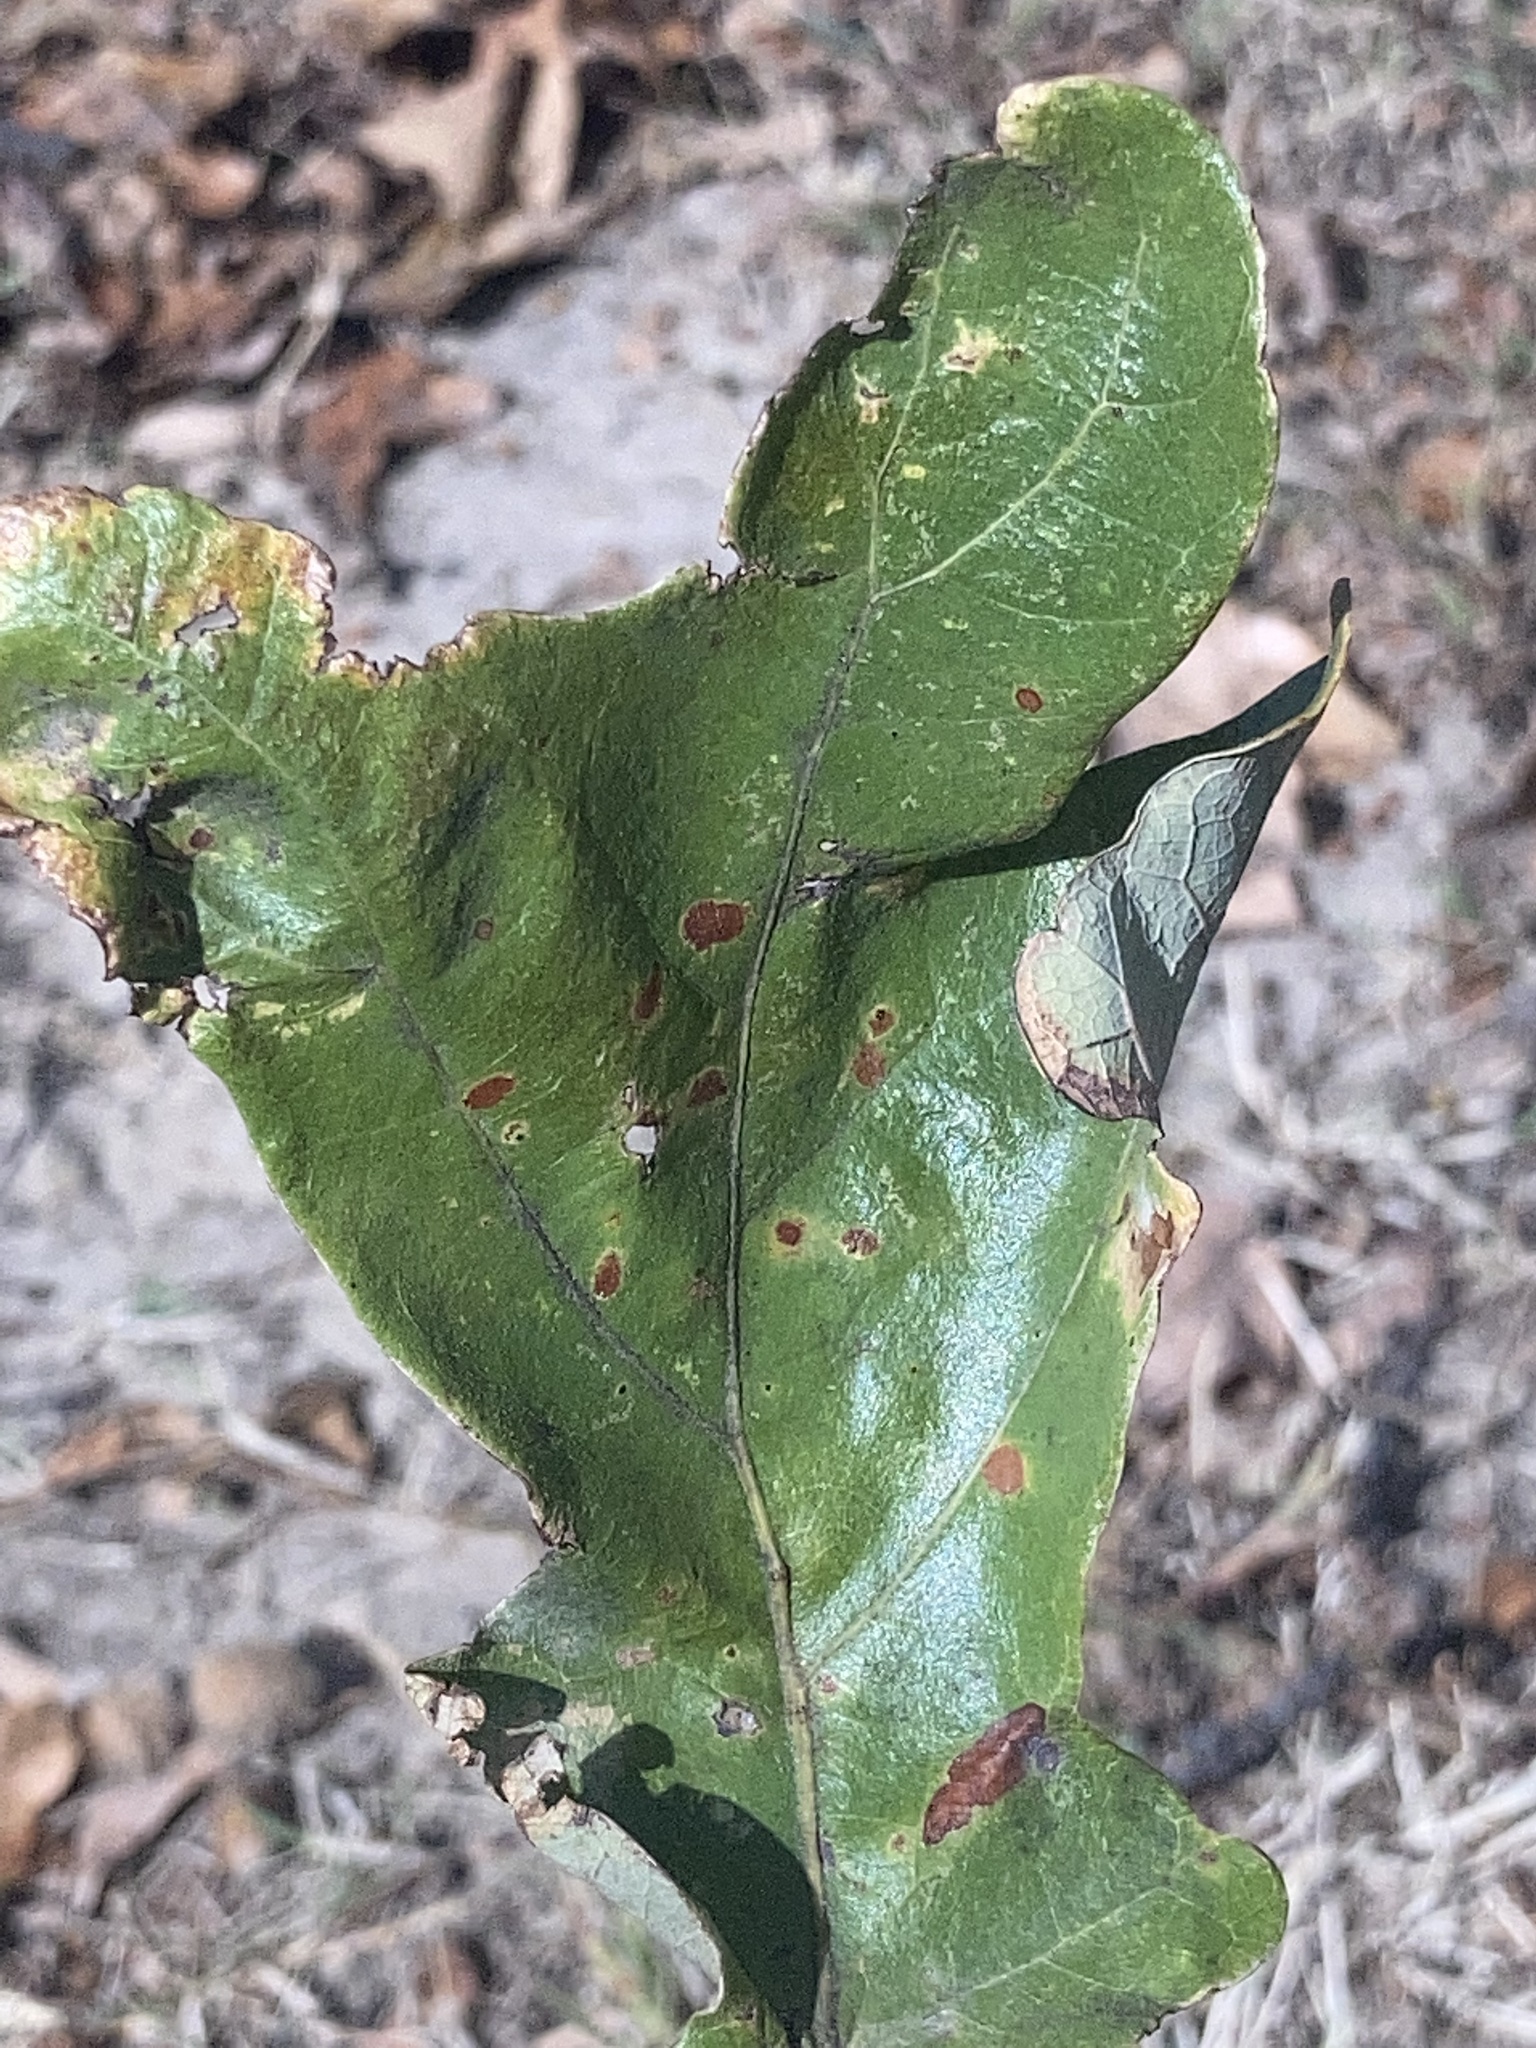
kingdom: Animalia
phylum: Arthropoda
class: Insecta
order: Hymenoptera
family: Cynipidae
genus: Andricus
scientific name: Andricus Druon pattoni
